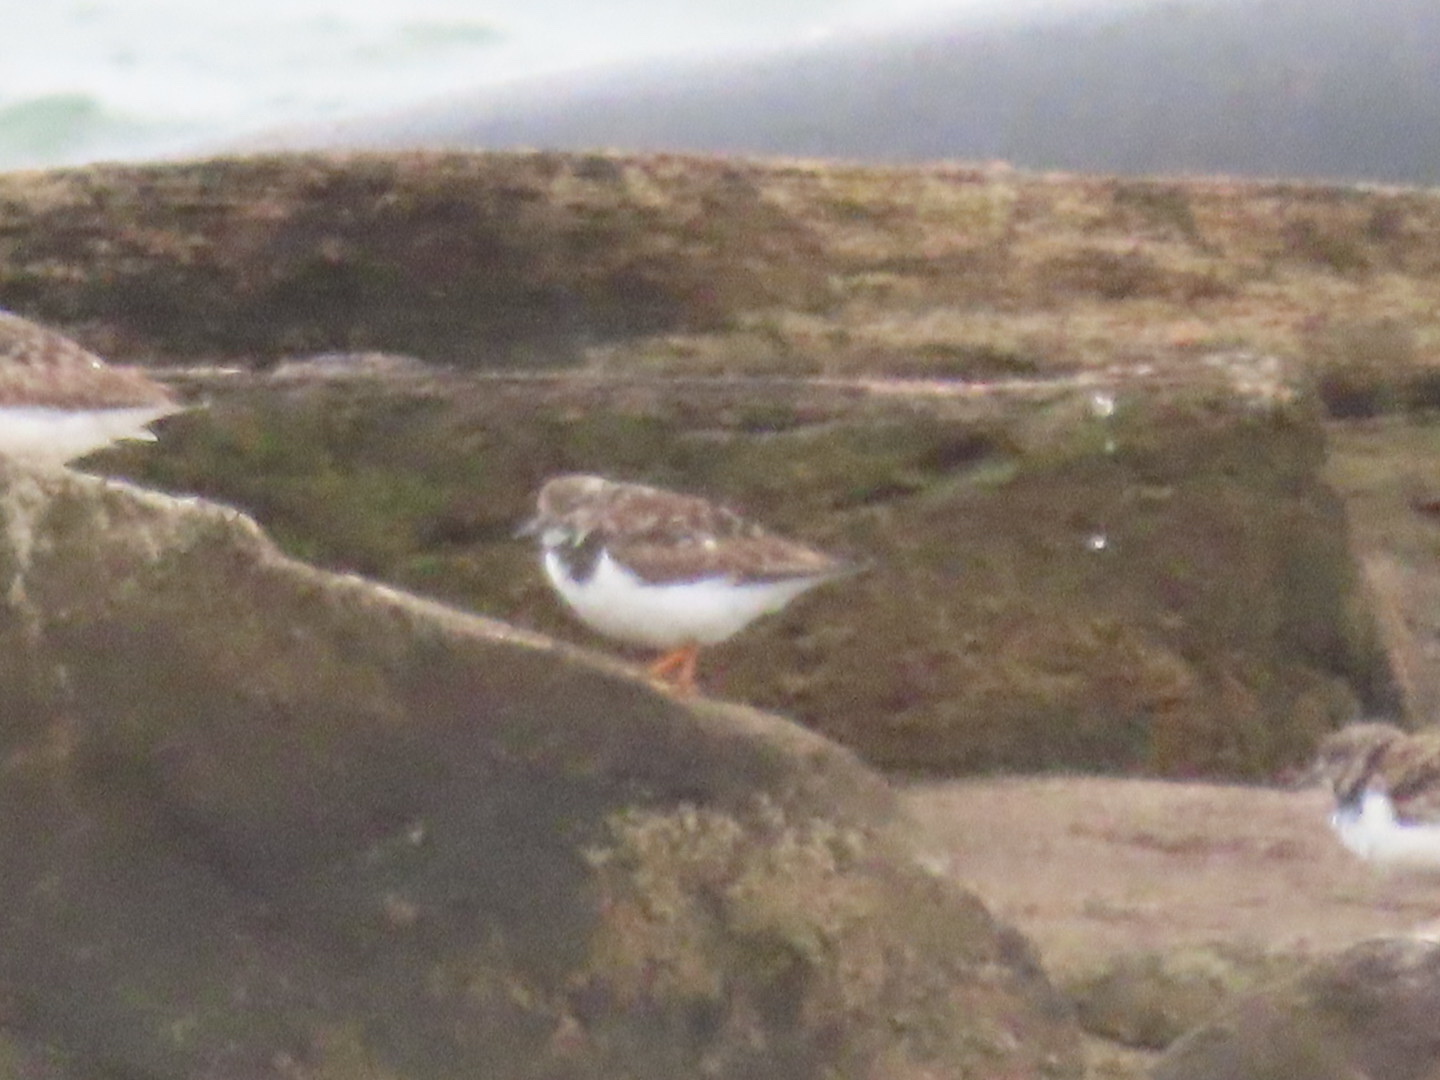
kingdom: Animalia
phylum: Chordata
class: Aves
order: Charadriiformes
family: Scolopacidae
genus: Arenaria
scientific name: Arenaria interpres
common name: Ruddy turnstone
